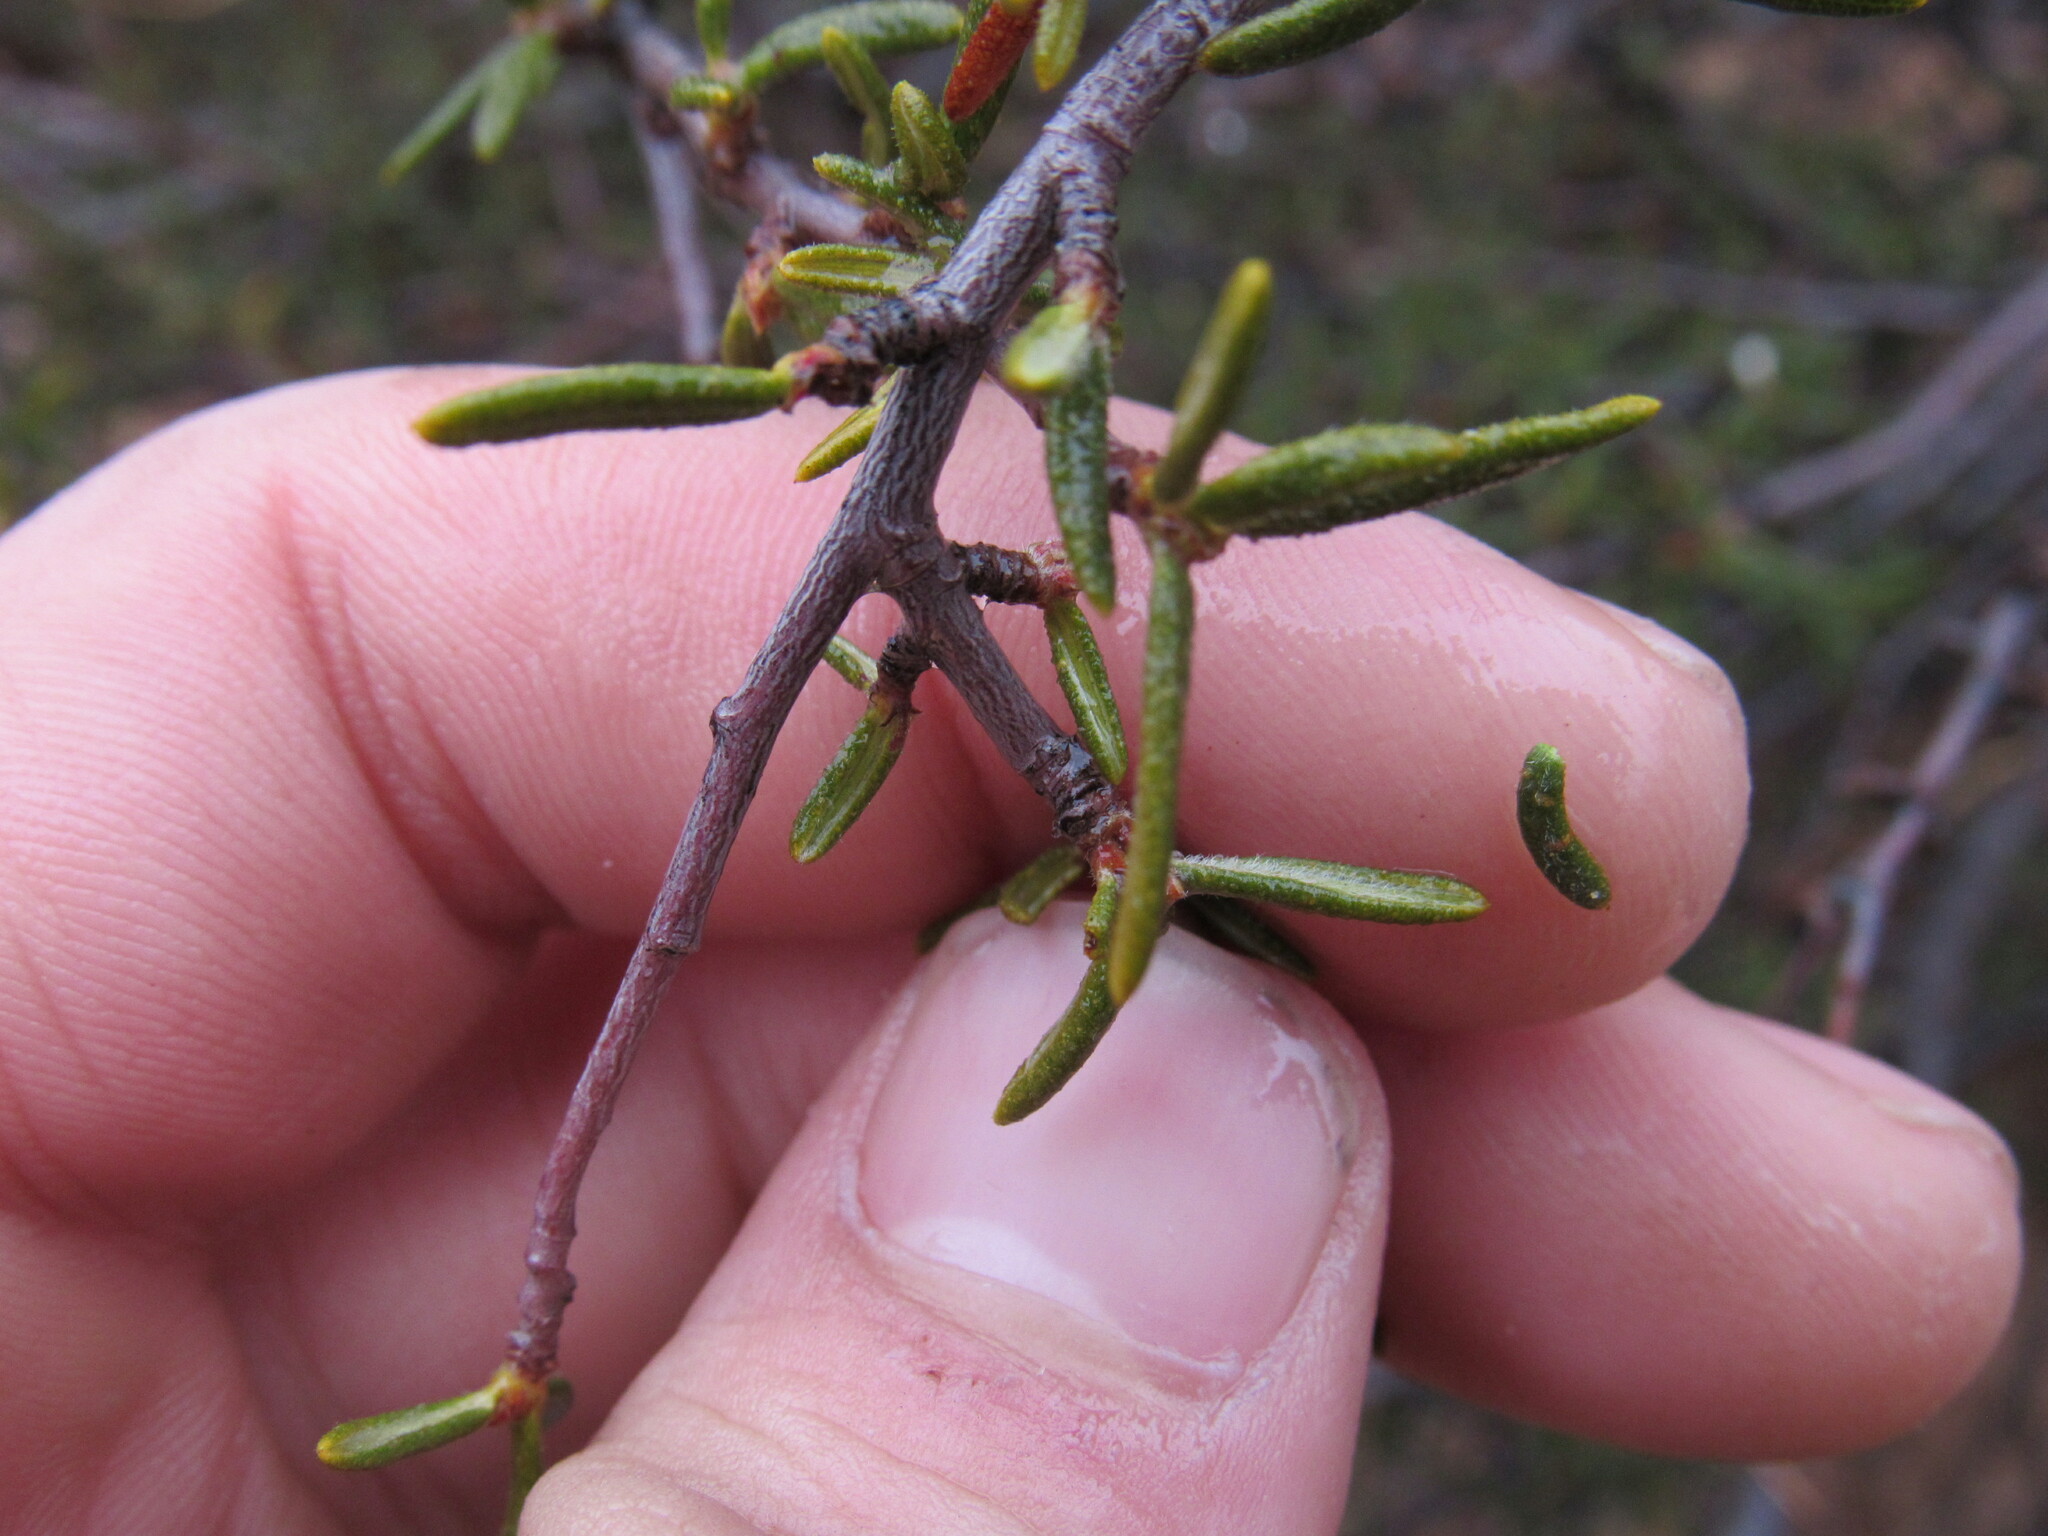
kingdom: Plantae
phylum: Tracheophyta
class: Magnoliopsida
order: Rosales
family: Rosaceae
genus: Cercocarpus
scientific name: Cercocarpus intricatus
